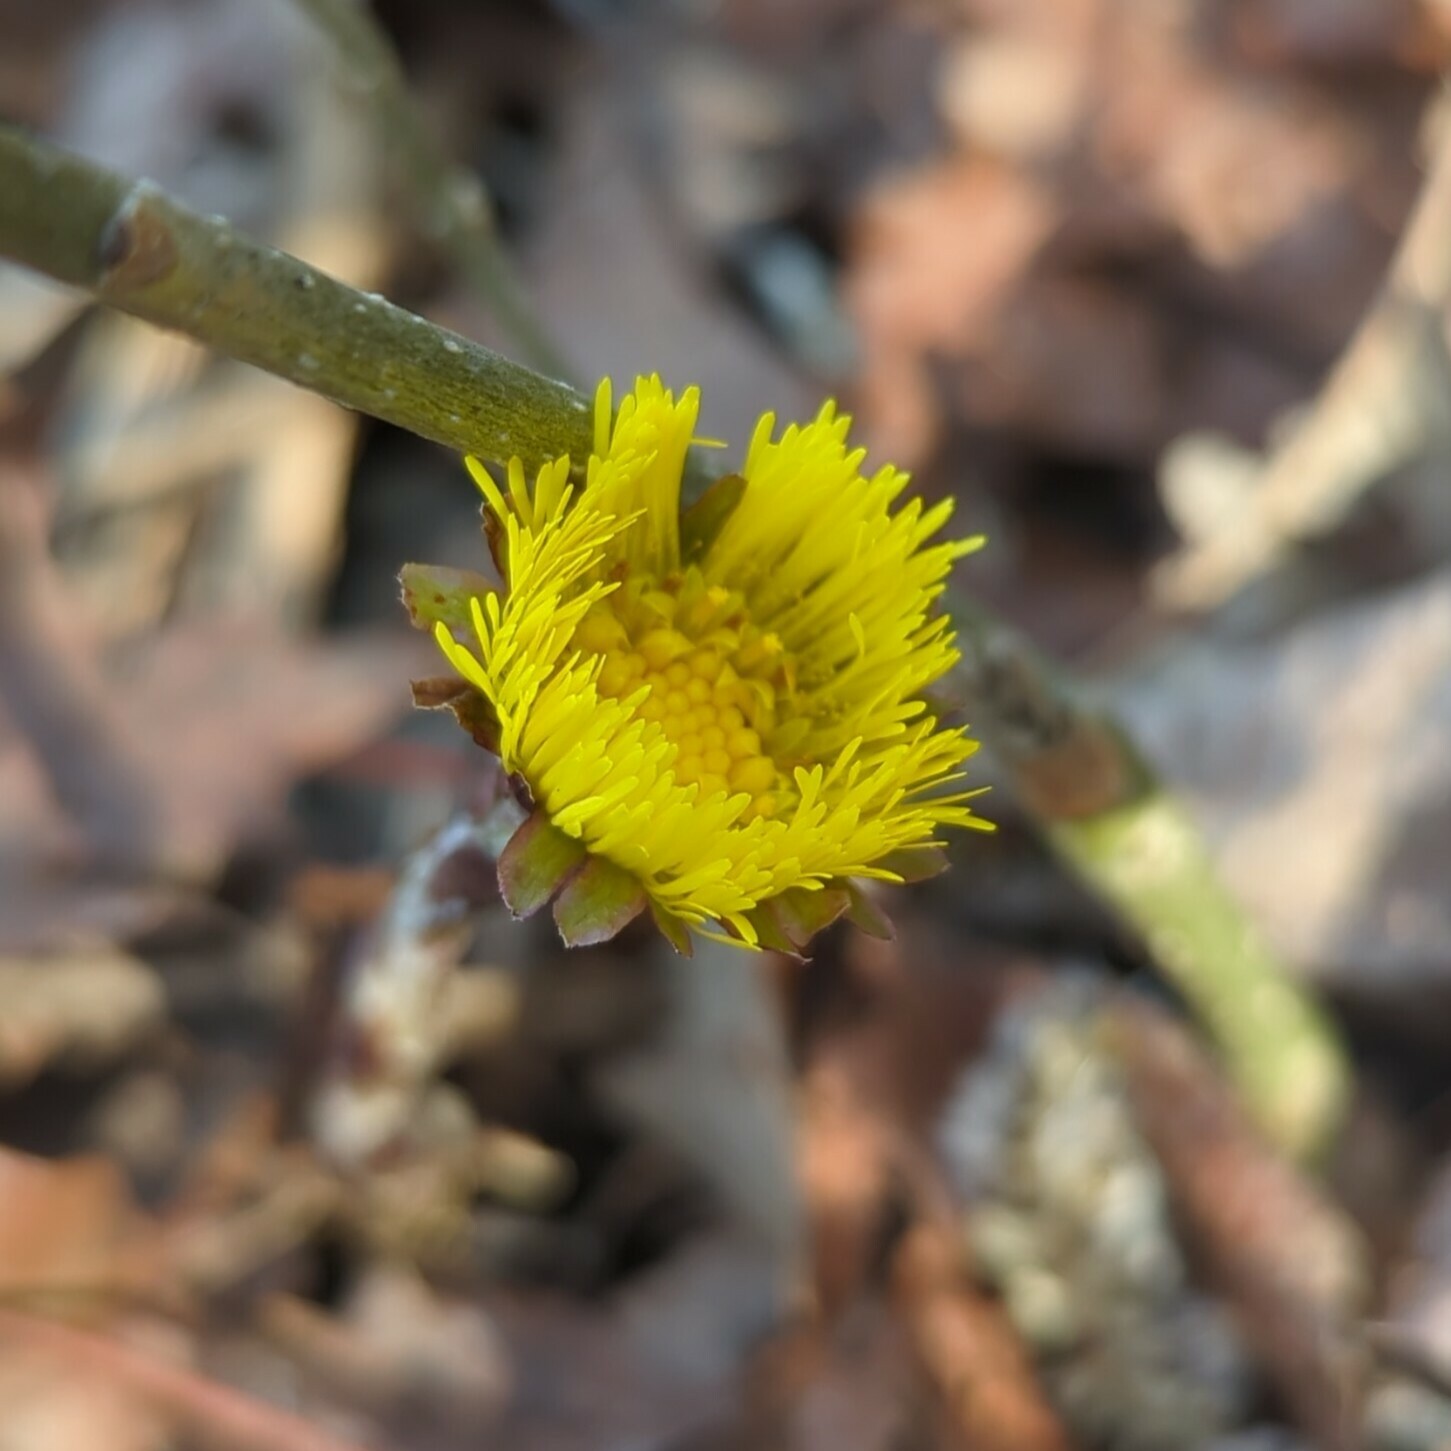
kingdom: Plantae
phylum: Tracheophyta
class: Magnoliopsida
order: Asterales
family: Asteraceae
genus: Tussilago
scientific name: Tussilago farfara
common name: Coltsfoot
